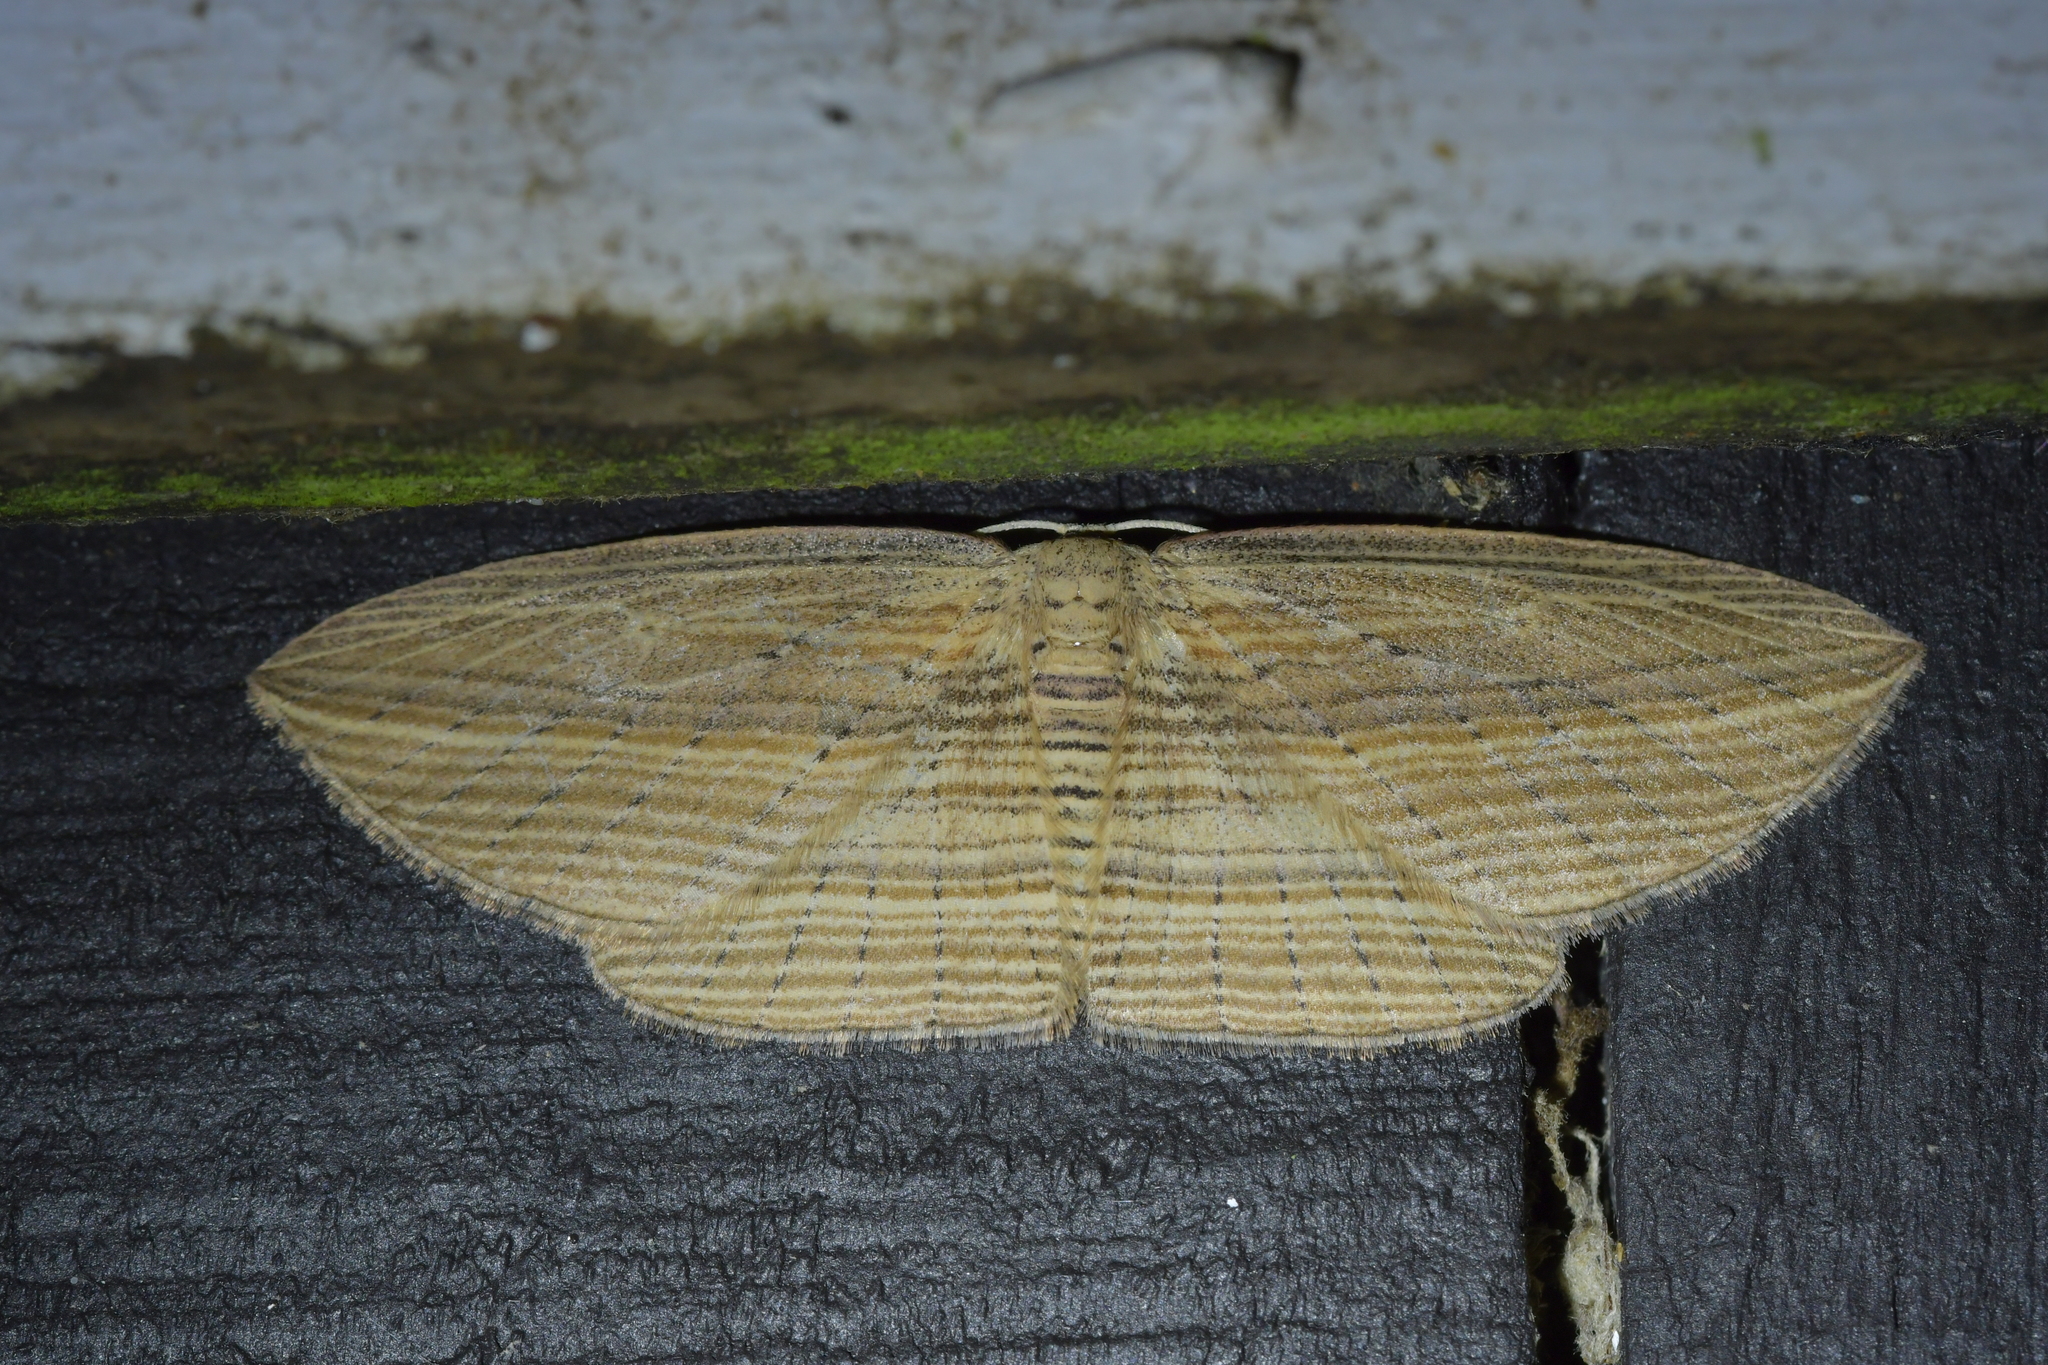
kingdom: Animalia
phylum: Arthropoda
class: Insecta
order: Lepidoptera
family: Geometridae
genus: Epiphryne
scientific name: Epiphryne verriculata
